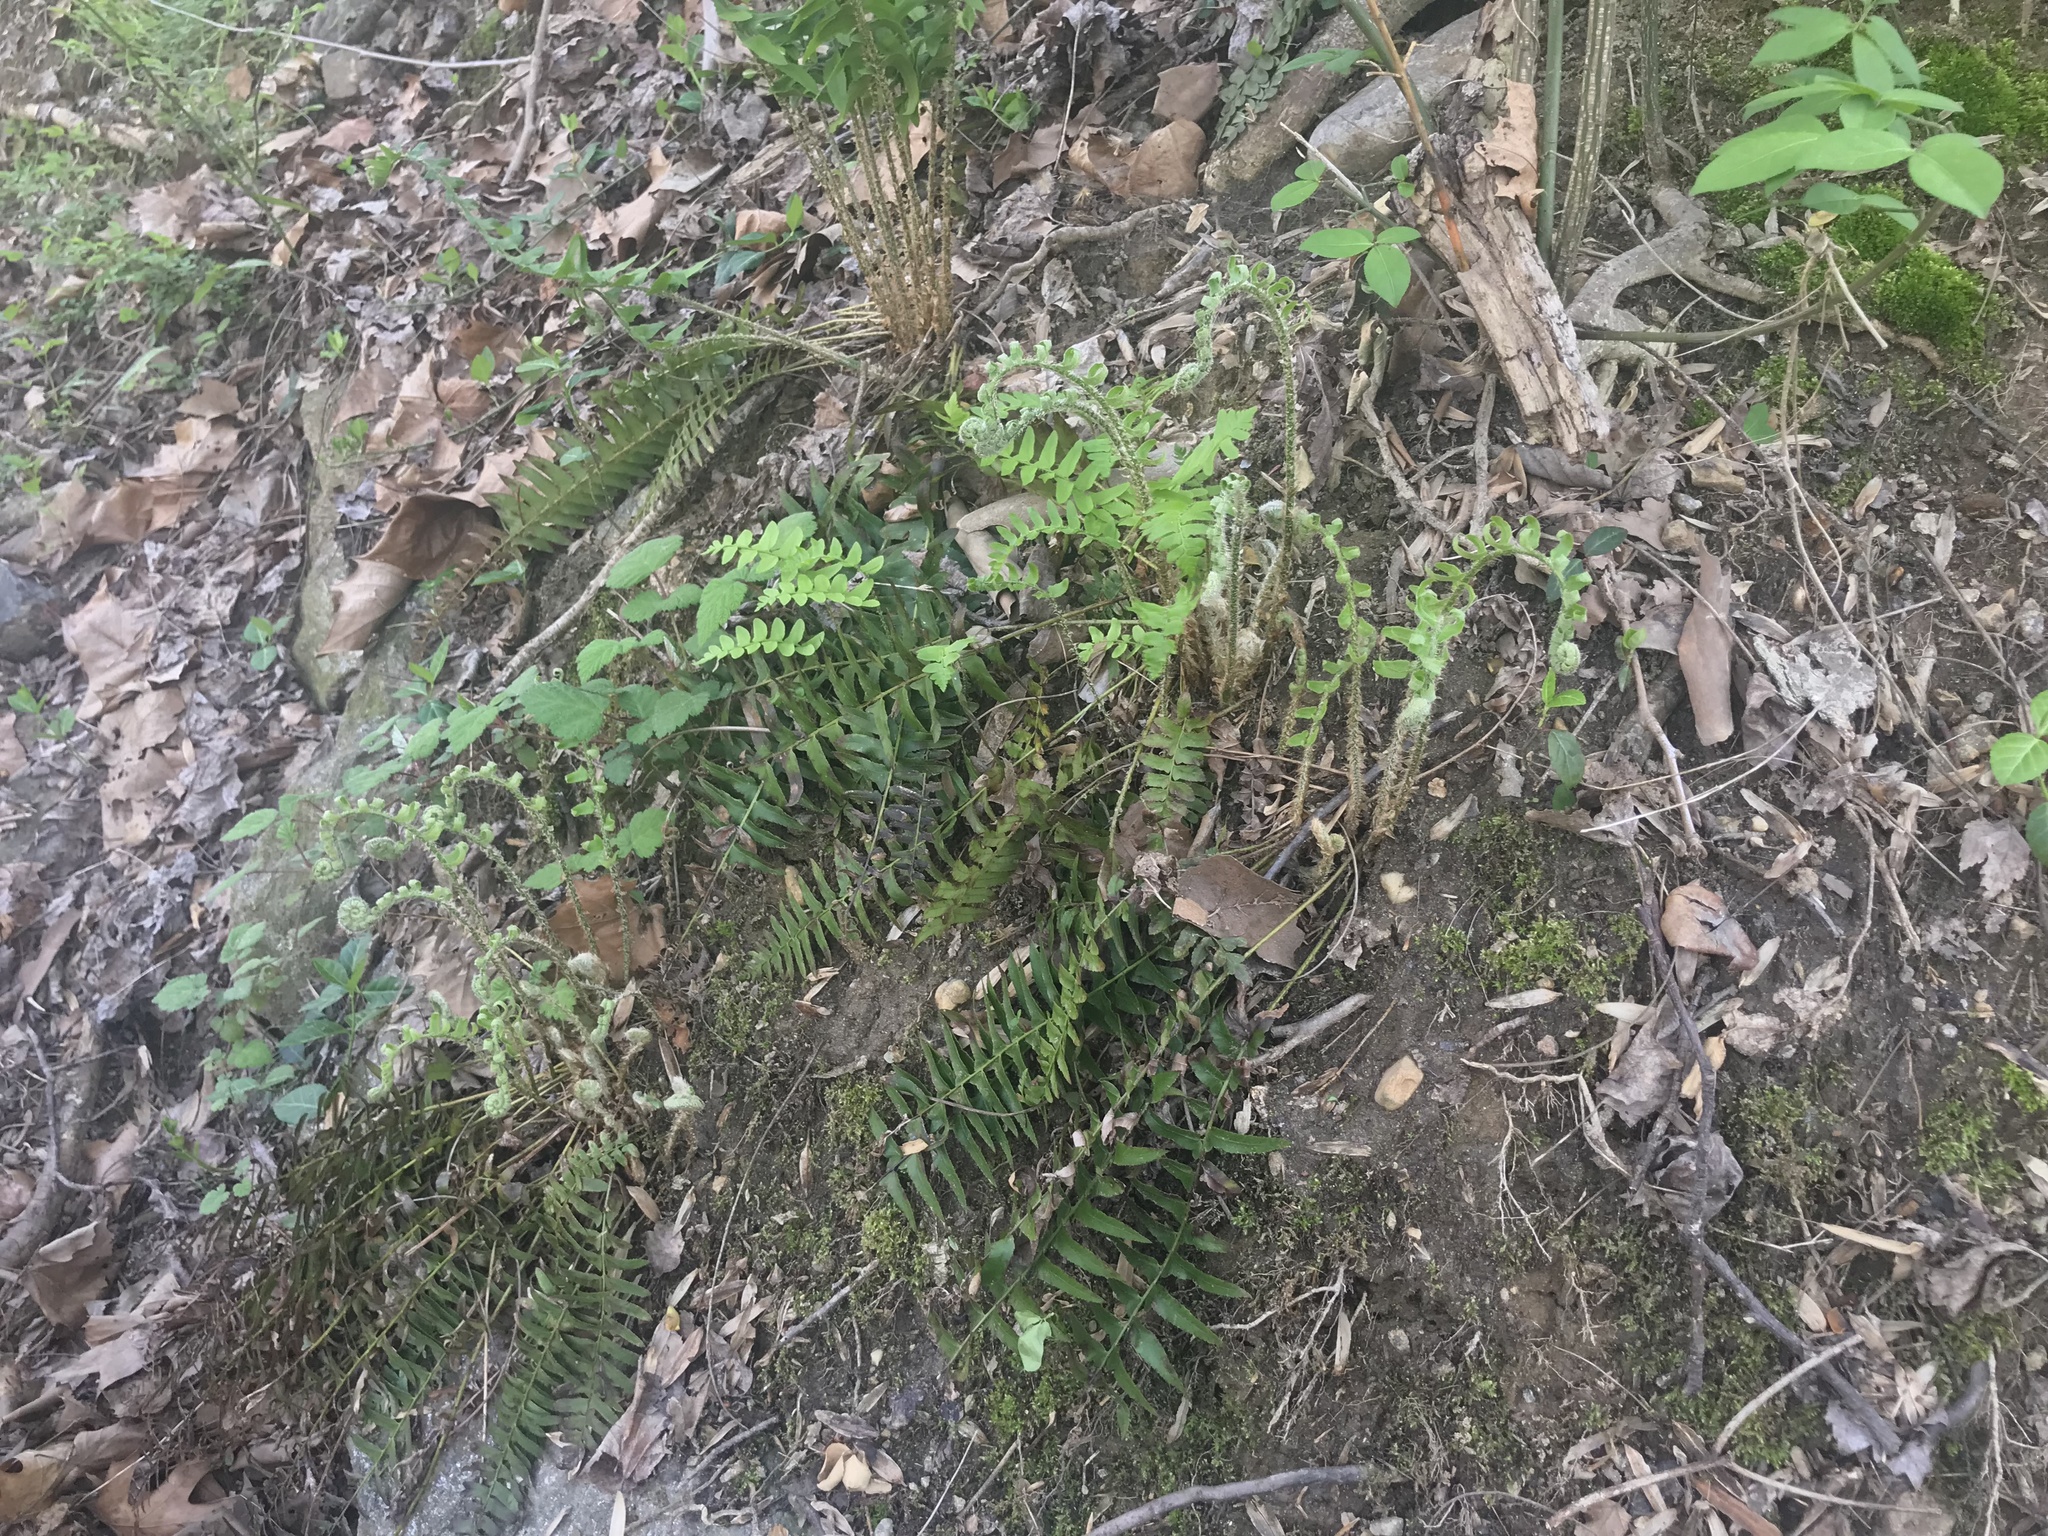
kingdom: Plantae
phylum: Tracheophyta
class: Magnoliopsida
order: Rosales
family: Rosaceae
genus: Rubus
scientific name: Rubus phoenicolasius
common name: Japanese wineberry
